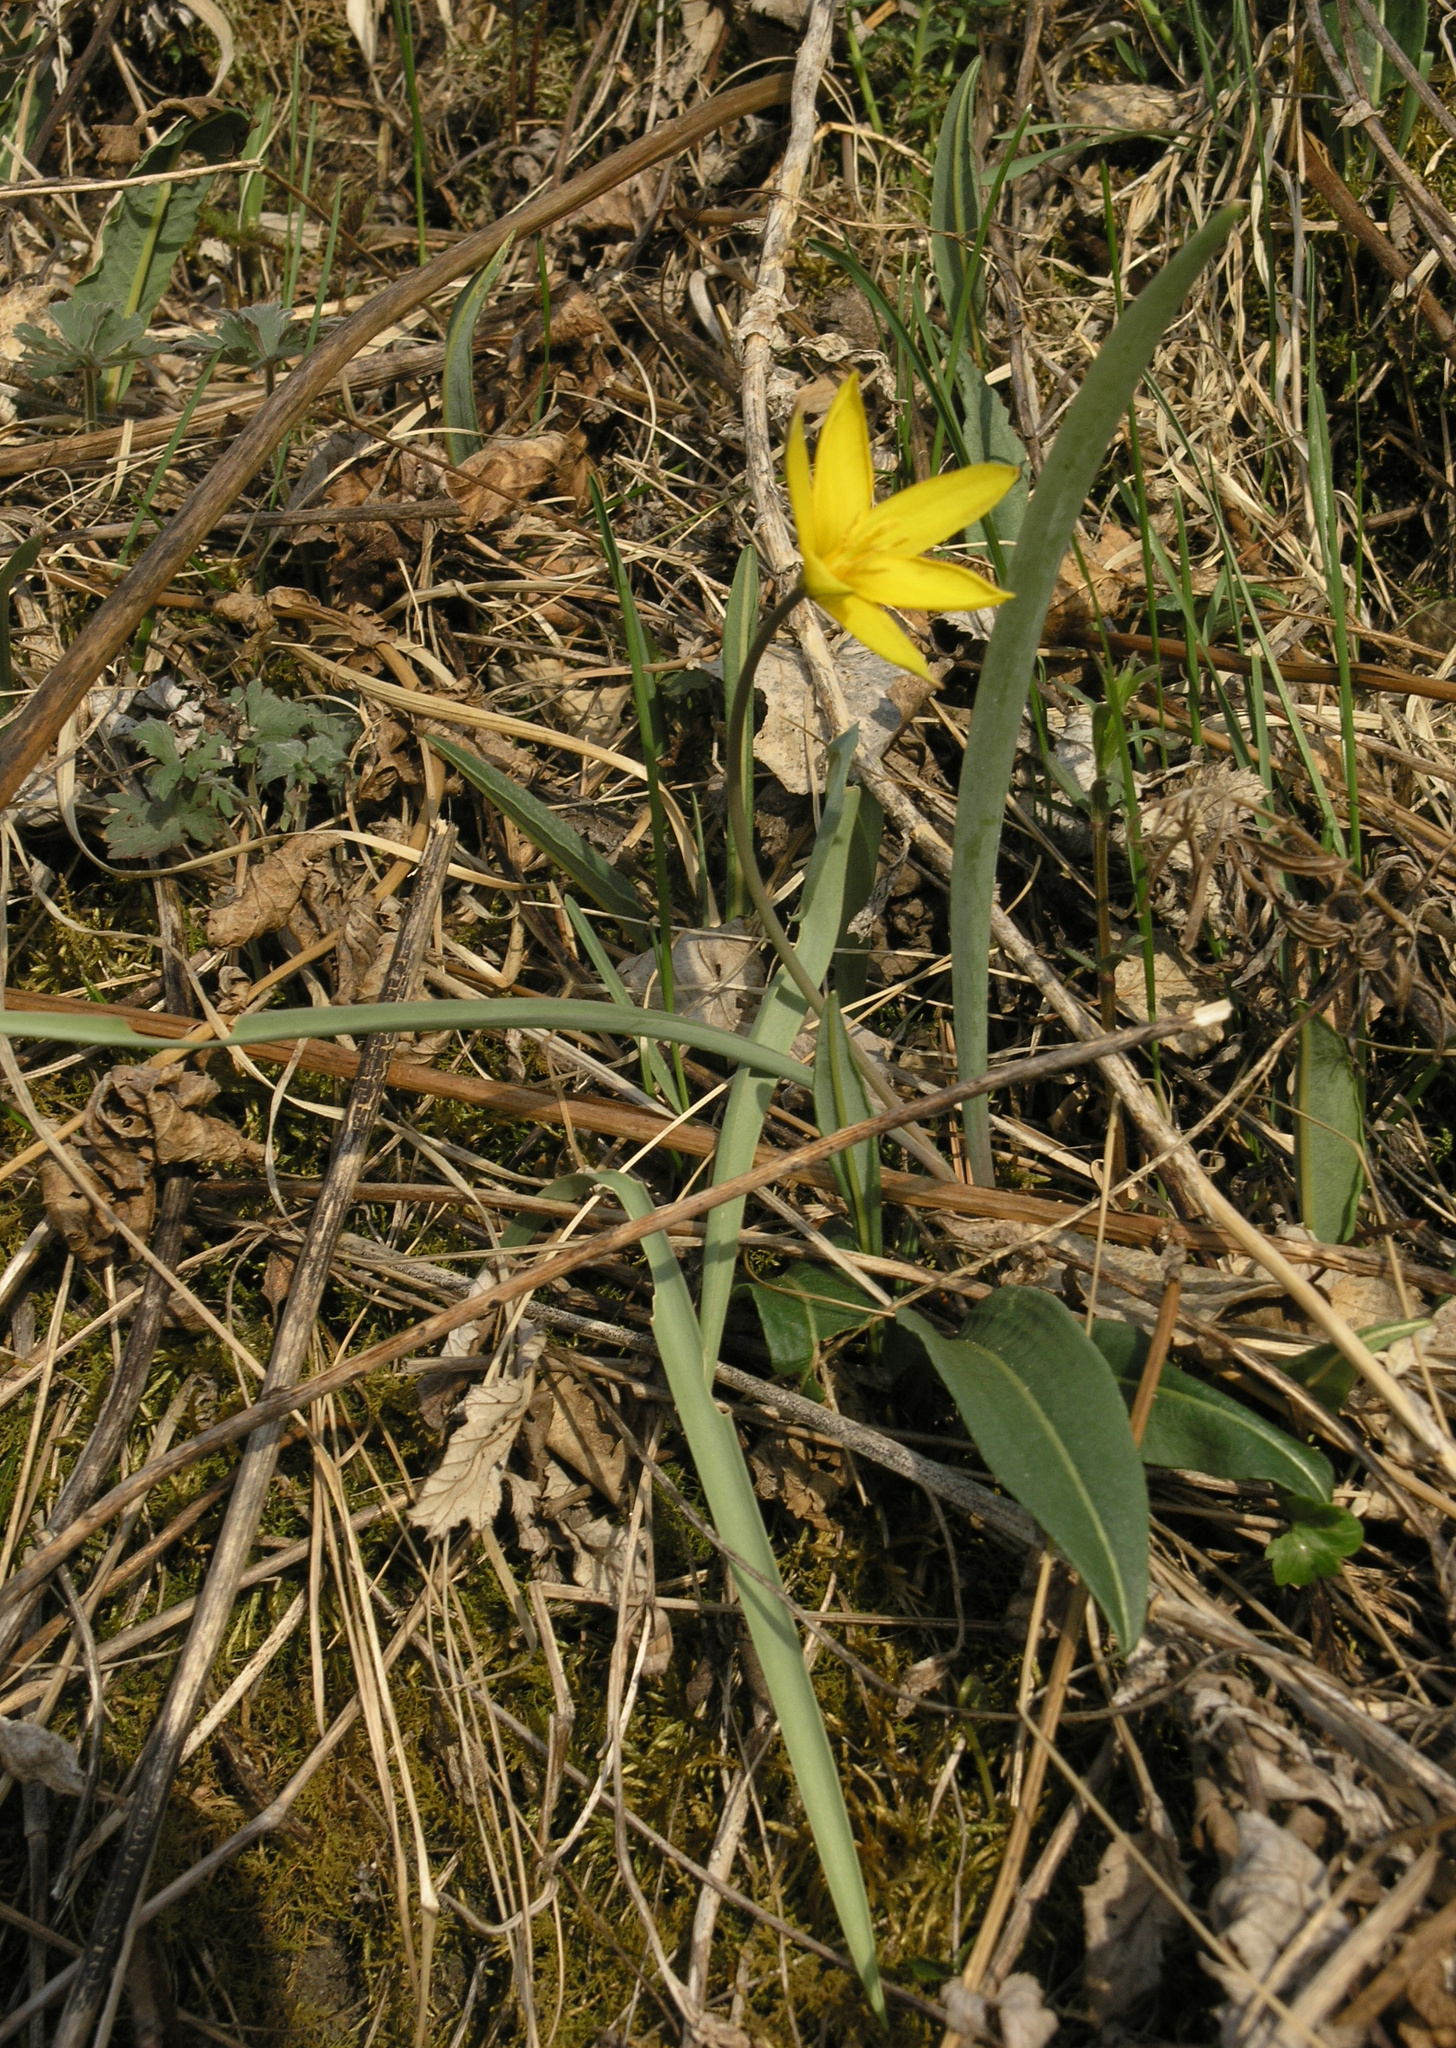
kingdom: Plantae
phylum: Tracheophyta
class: Liliopsida
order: Liliales
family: Liliaceae
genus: Tulipa
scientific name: Tulipa uniflora
